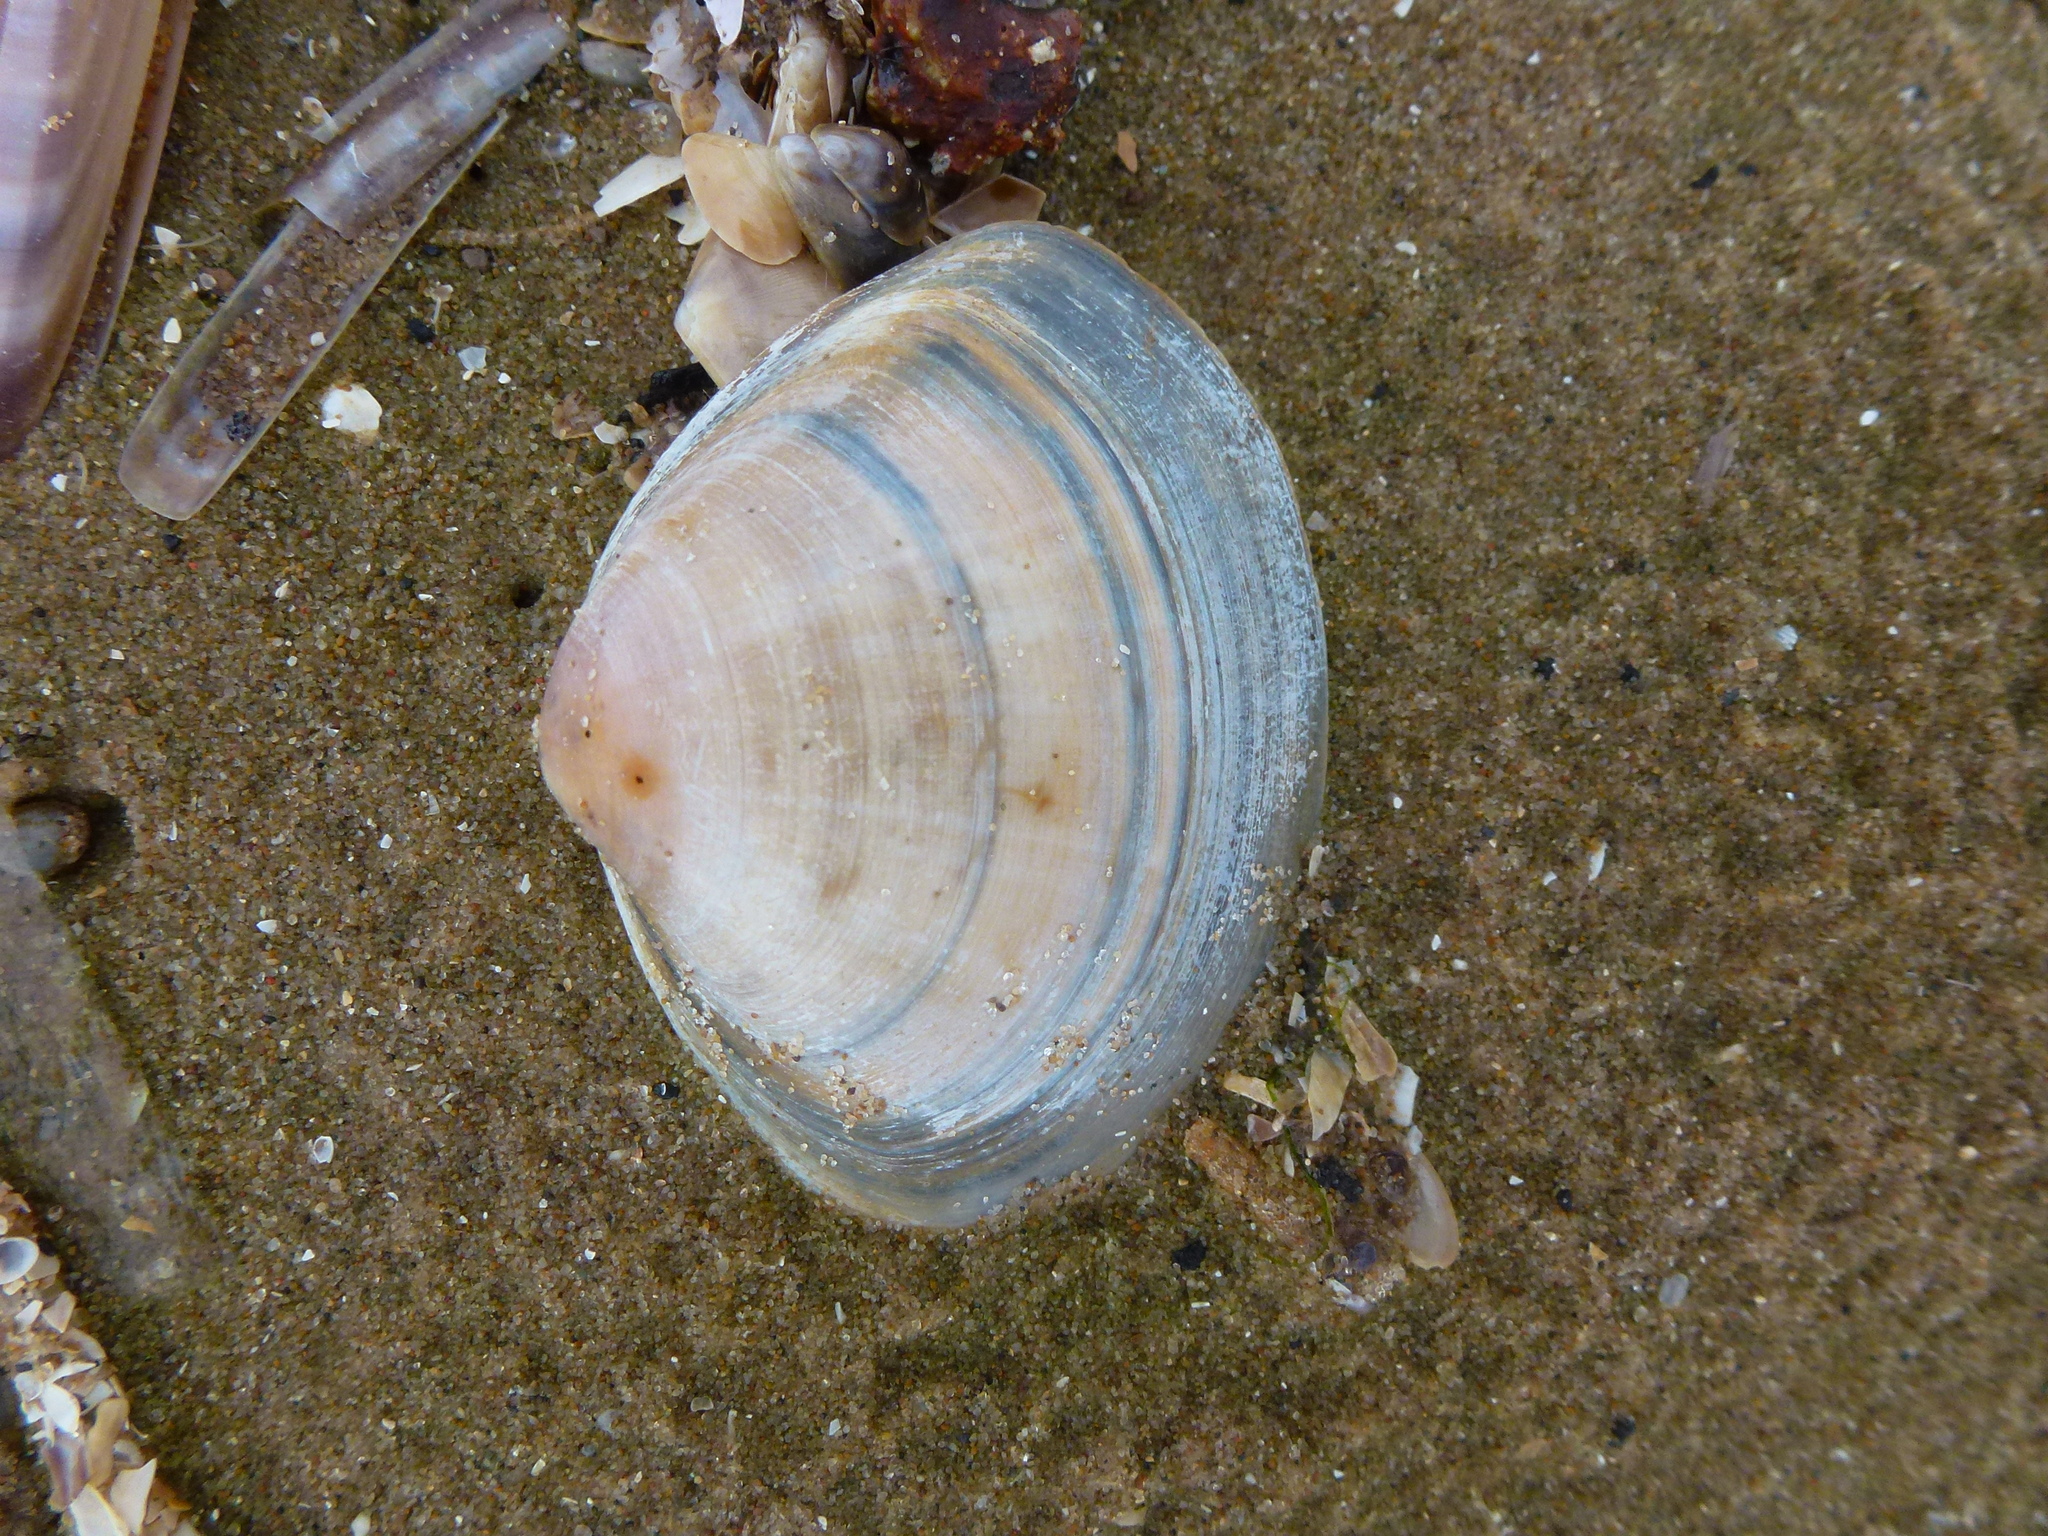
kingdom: Animalia
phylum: Mollusca
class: Bivalvia
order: Venerida
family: Mactridae
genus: Mactra
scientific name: Mactra stultorum
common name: Rayed trough shell
